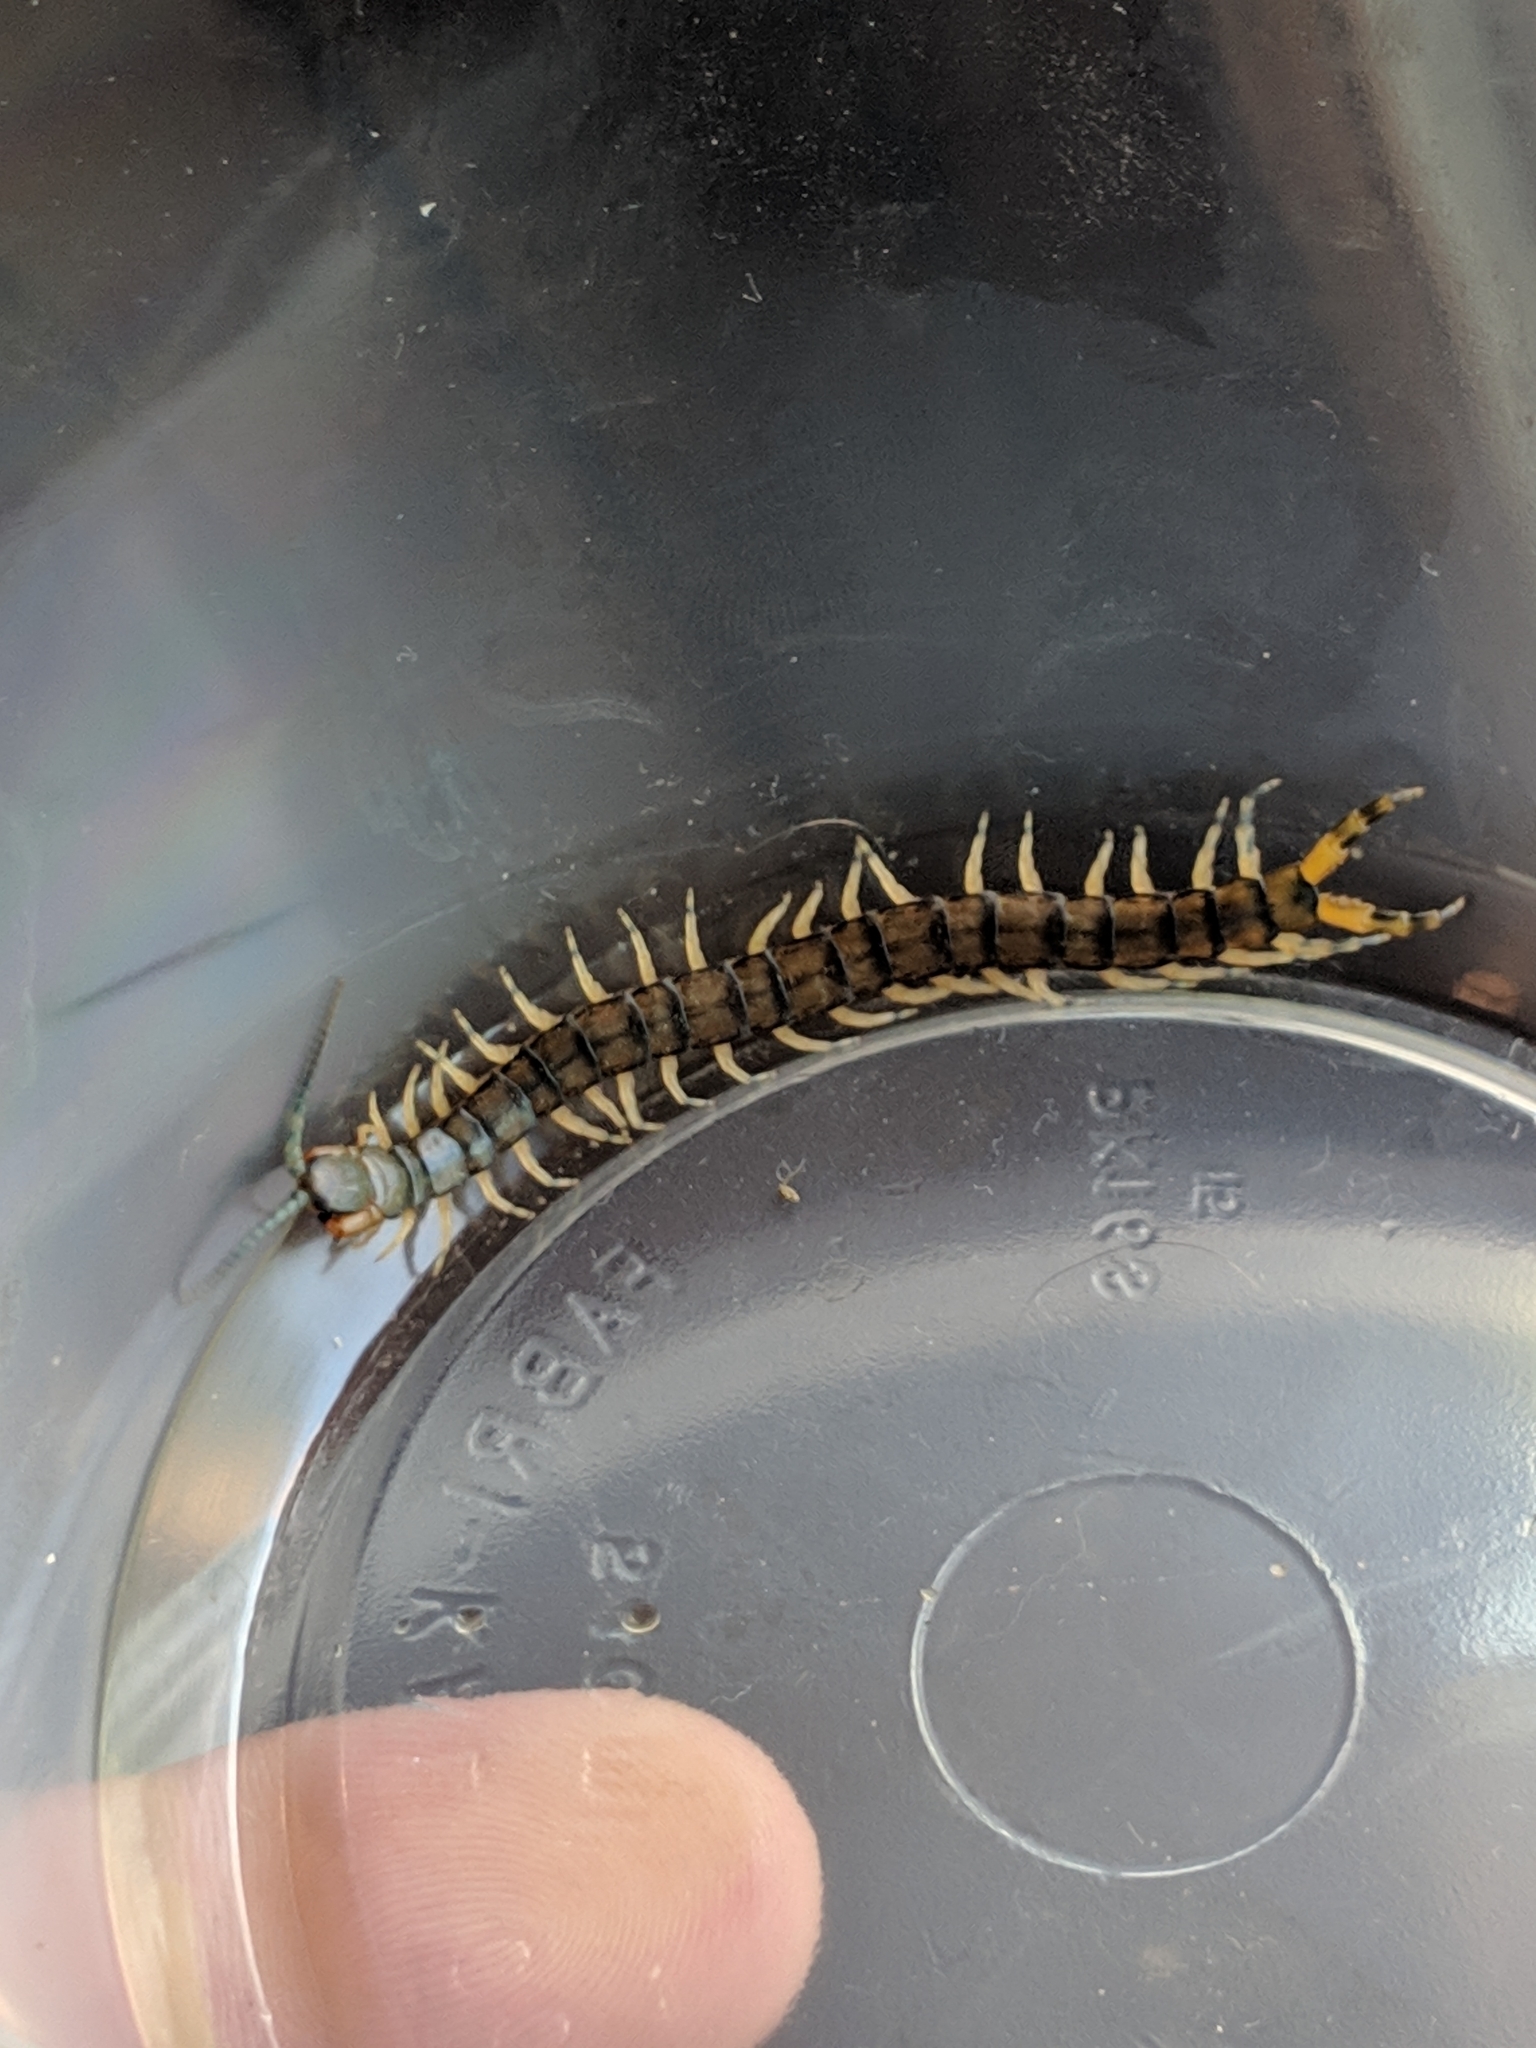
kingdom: Animalia
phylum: Arthropoda
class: Chilopoda
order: Scolopendromorpha
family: Scolopendridae
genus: Hemiscolopendra
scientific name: Hemiscolopendra marginata
